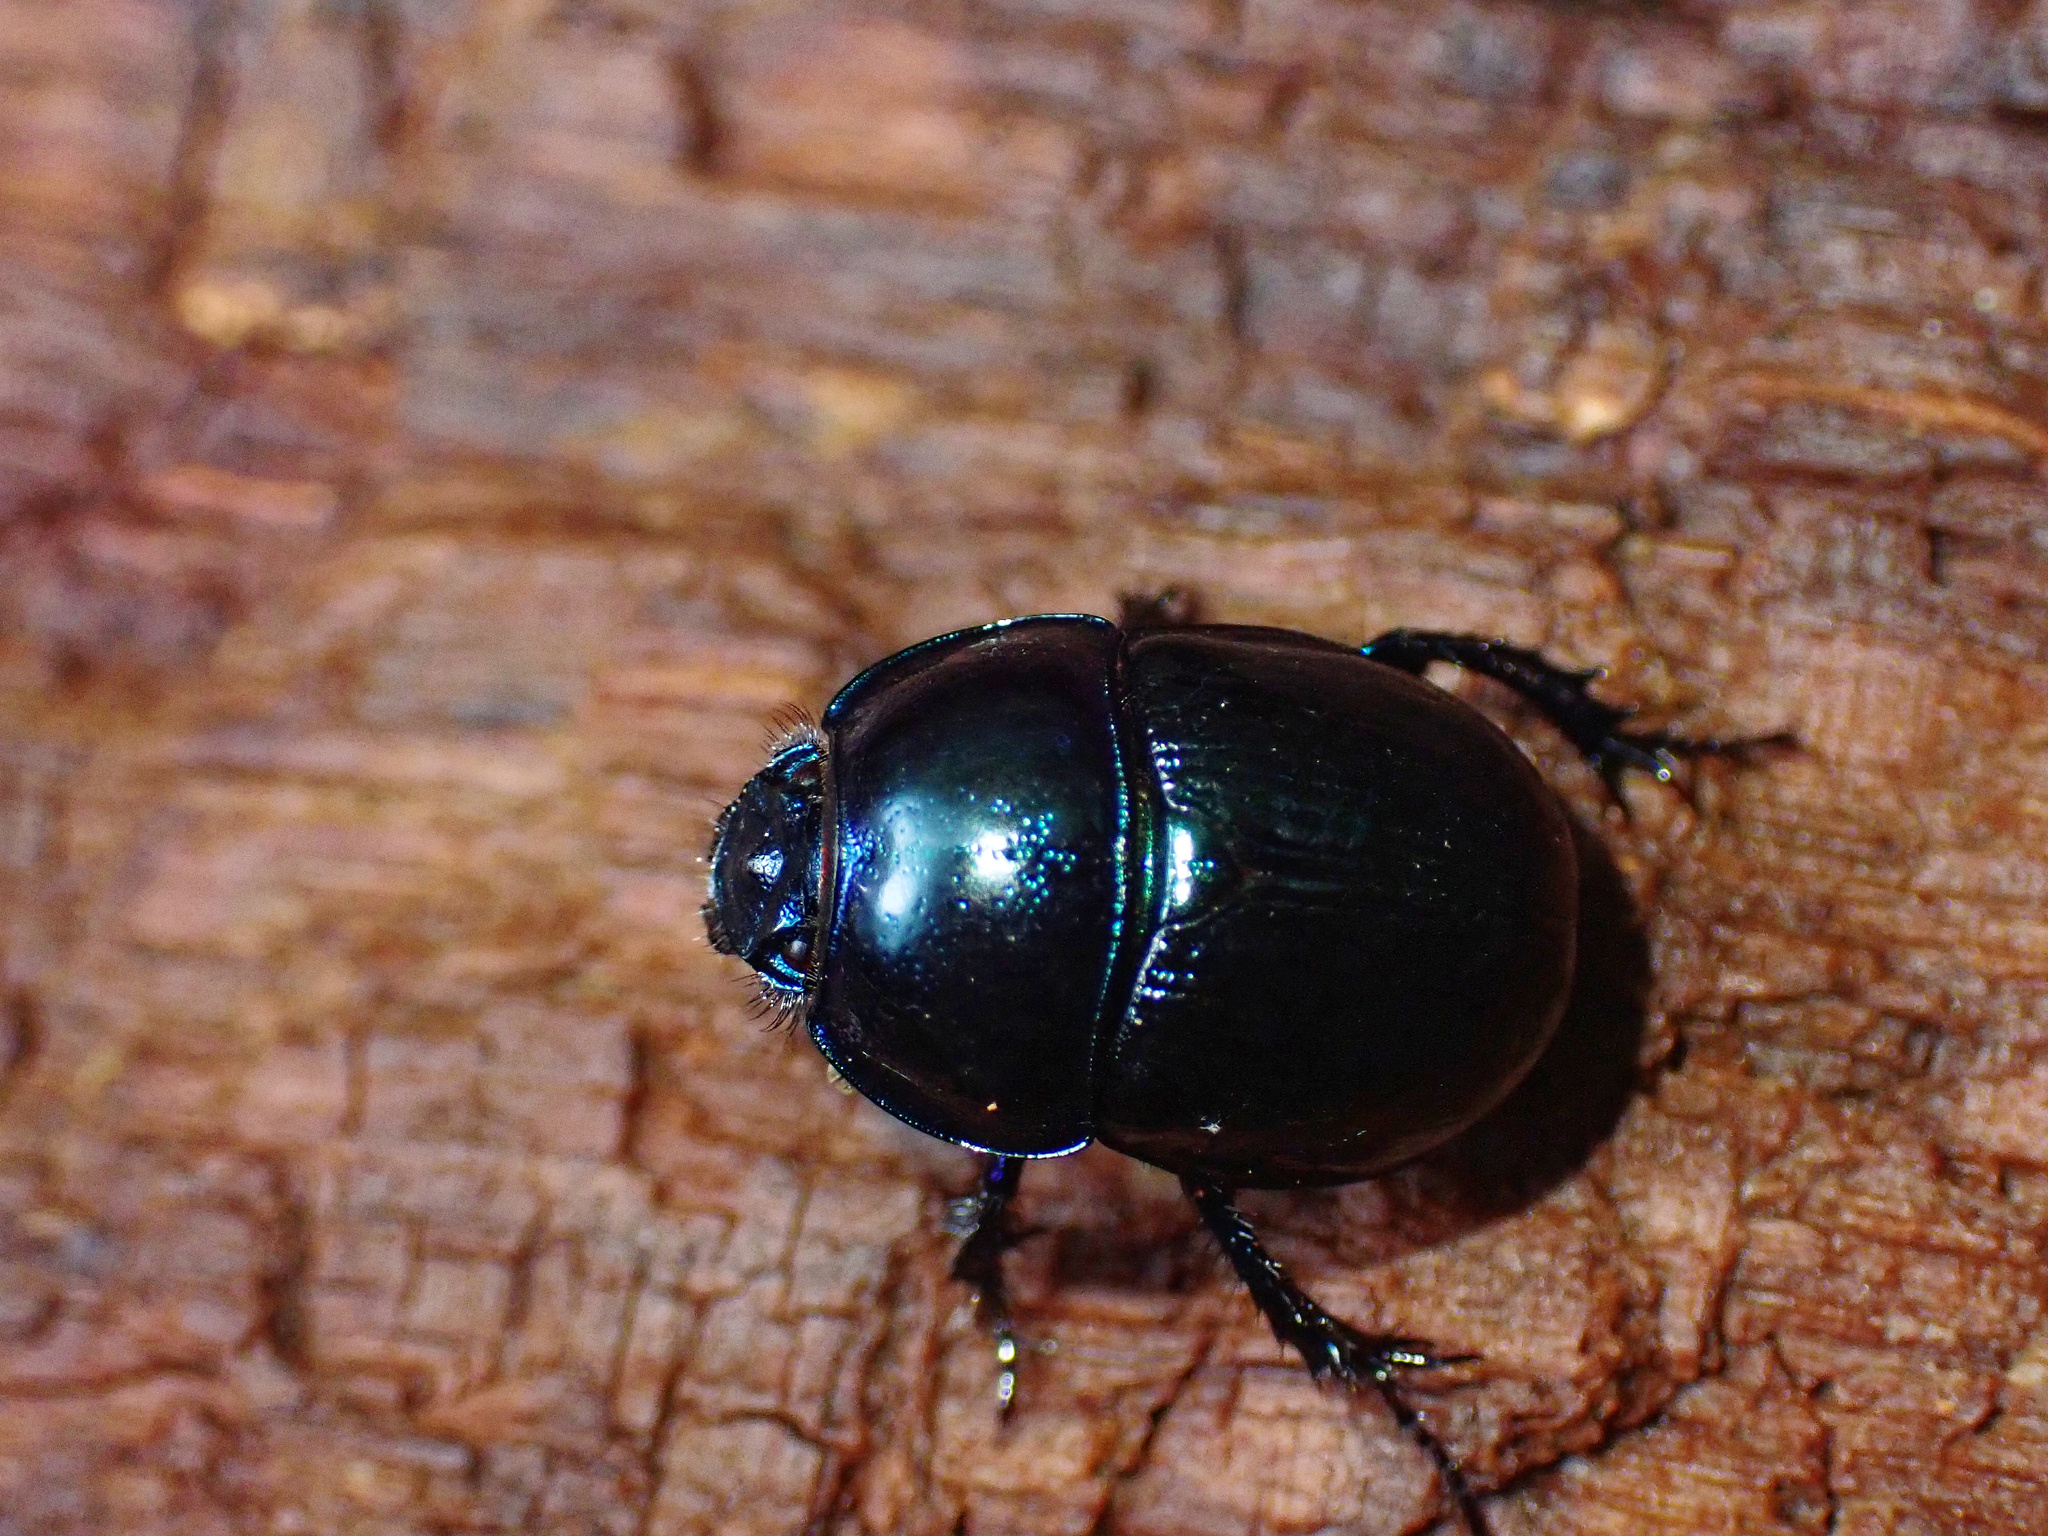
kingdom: Animalia
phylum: Arthropoda
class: Insecta
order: Coleoptera
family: Geotrupidae
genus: Anoplotrupes
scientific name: Anoplotrupes stercorosus
